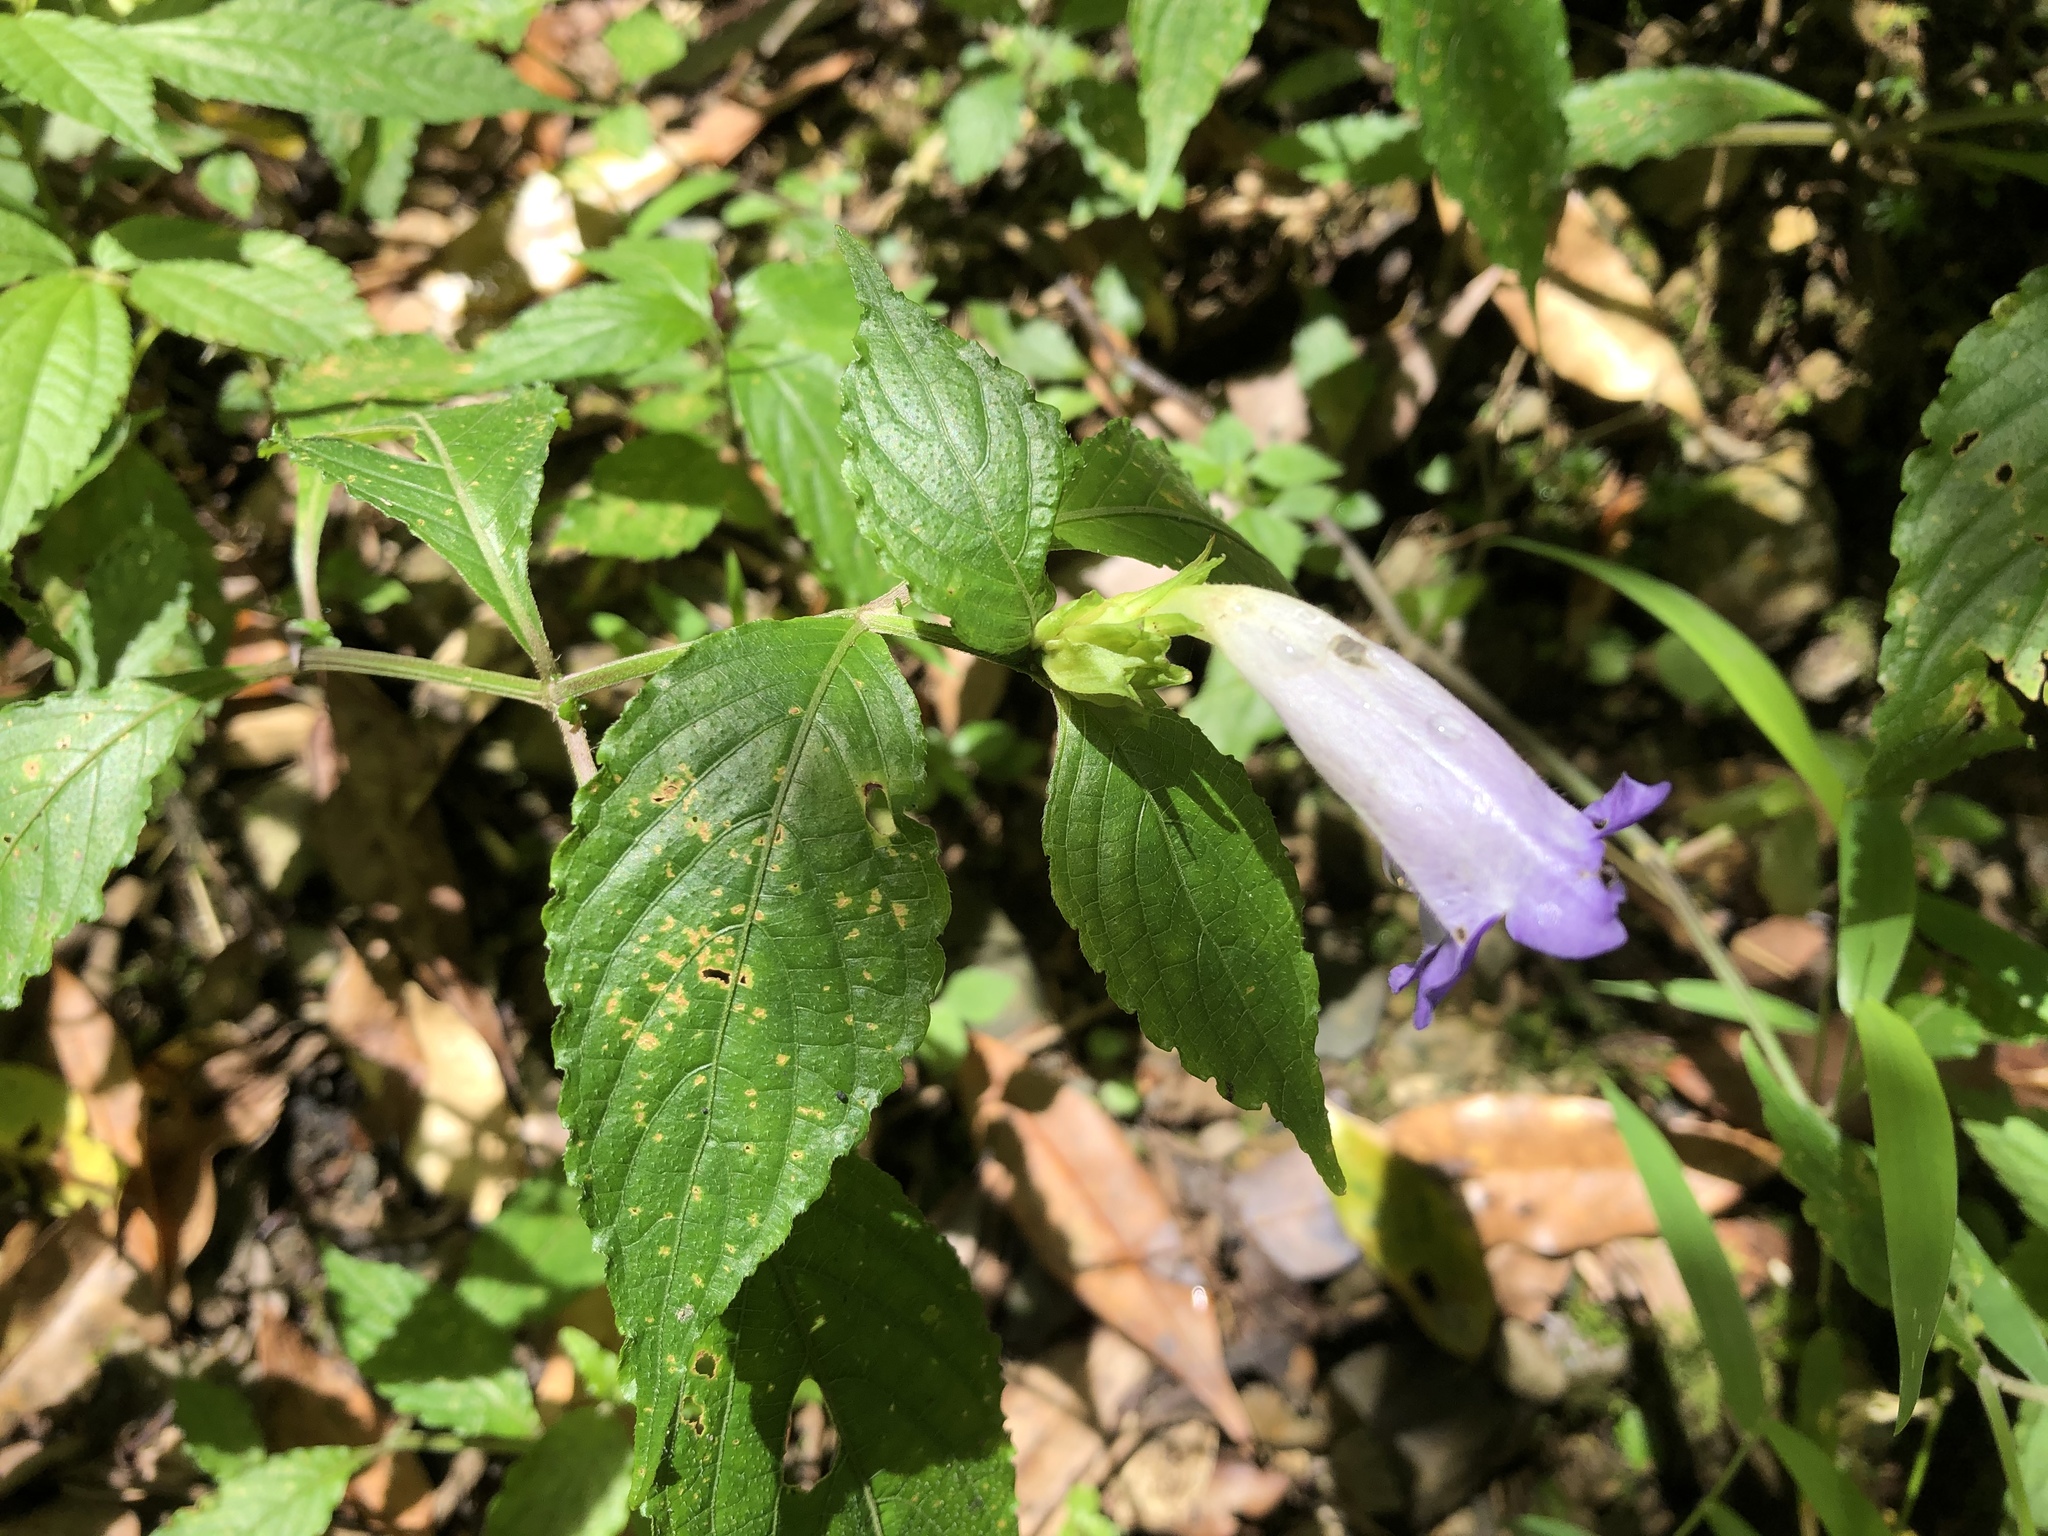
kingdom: Plantae
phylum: Tracheophyta
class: Magnoliopsida
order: Lamiales
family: Acanthaceae
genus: Strobilanthes
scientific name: Strobilanthes formosana
